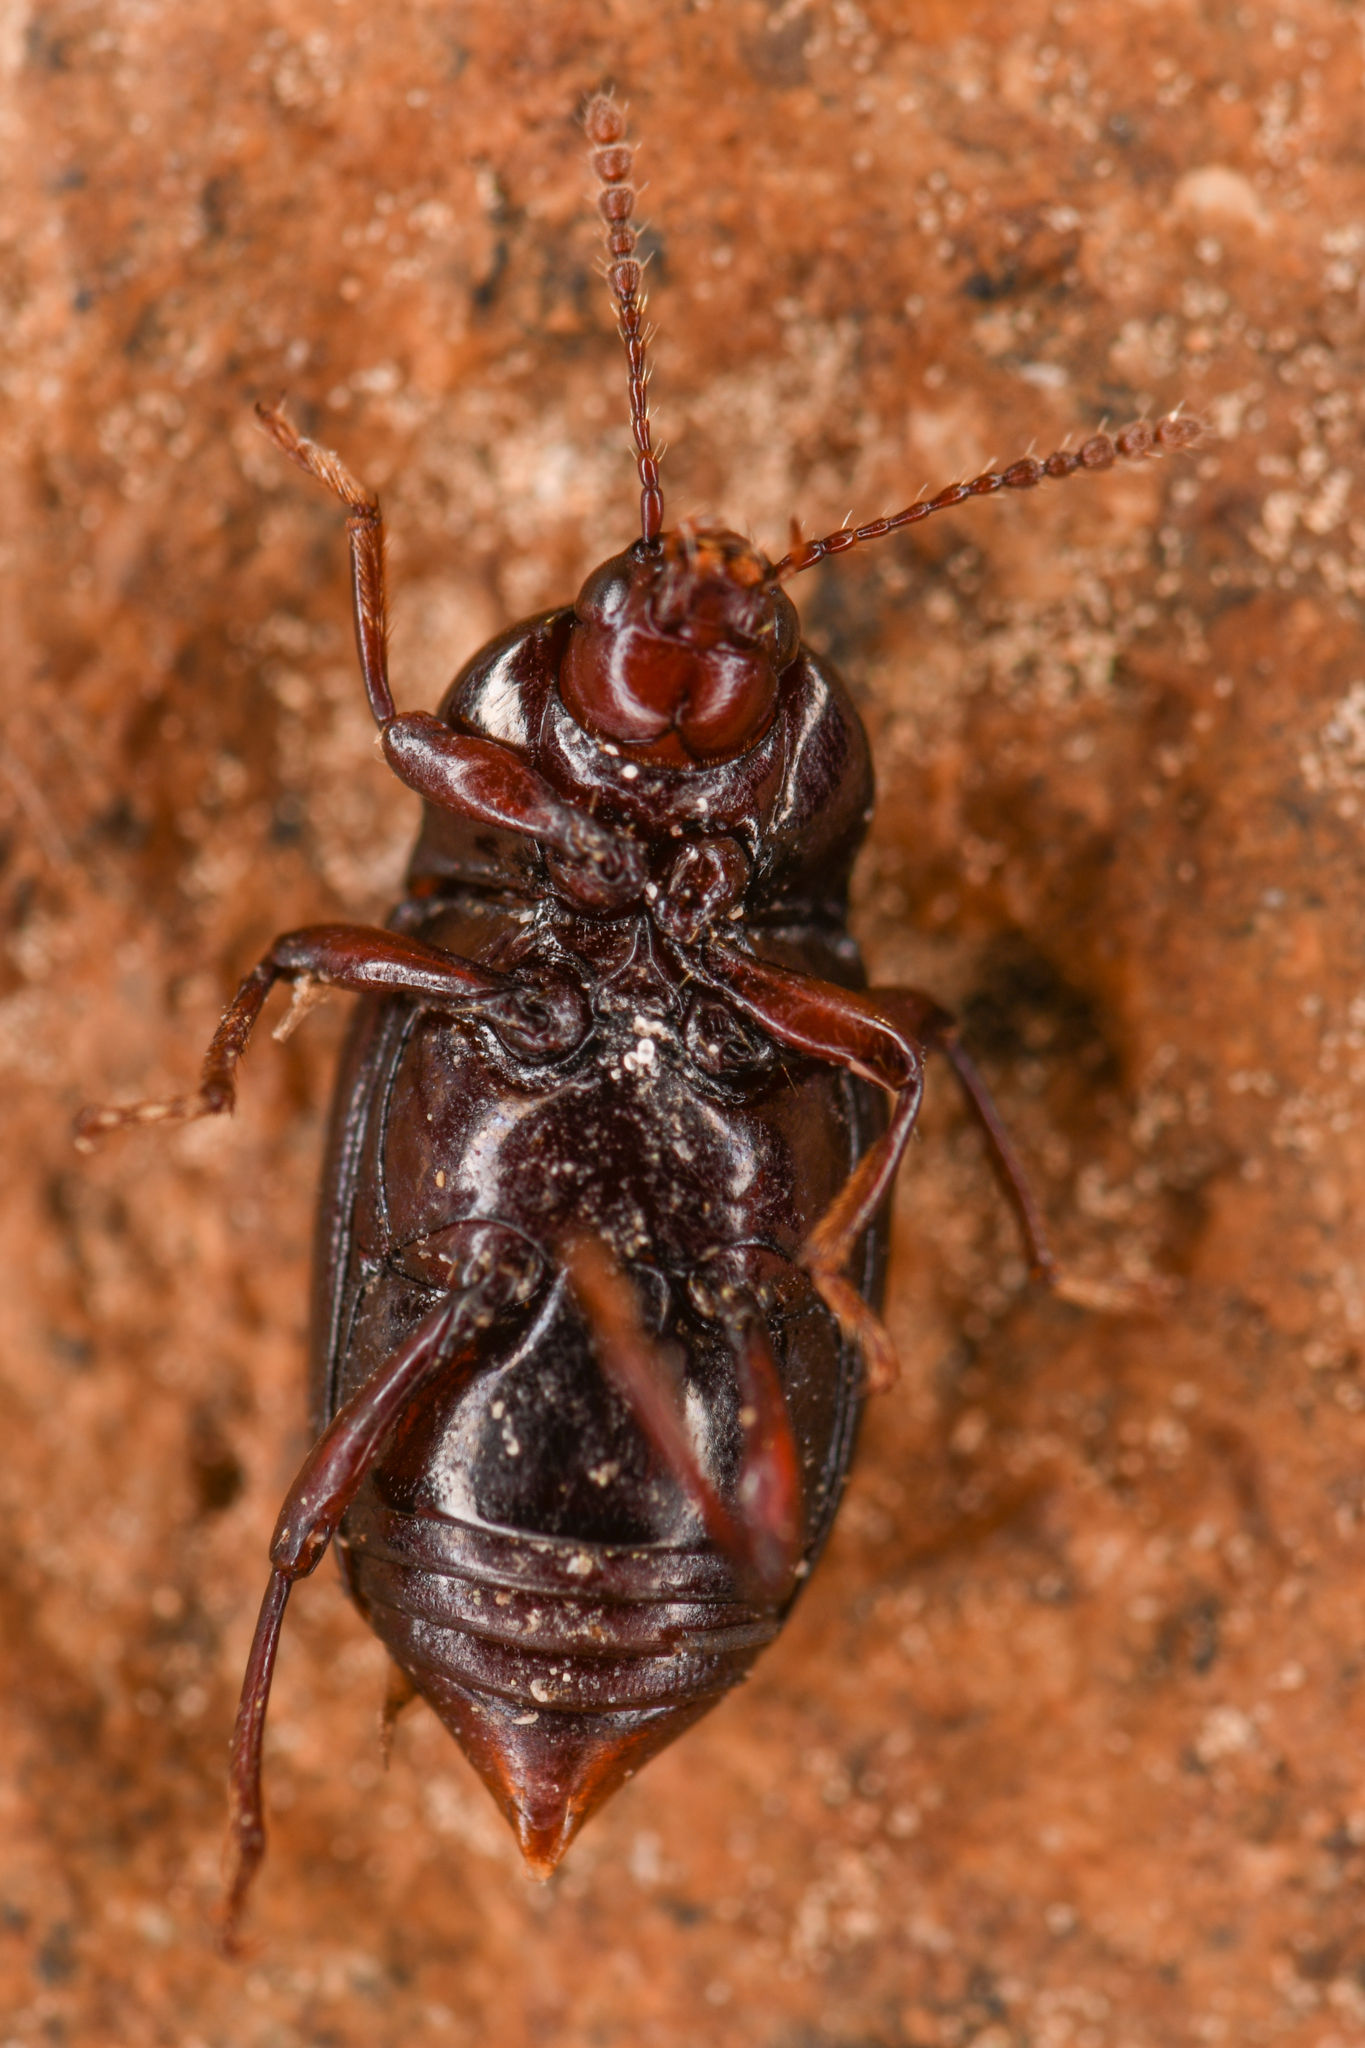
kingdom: Animalia
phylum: Arthropoda
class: Insecta
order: Coleoptera
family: Staphylinidae
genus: Scaphium
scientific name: Scaphium castanipes
